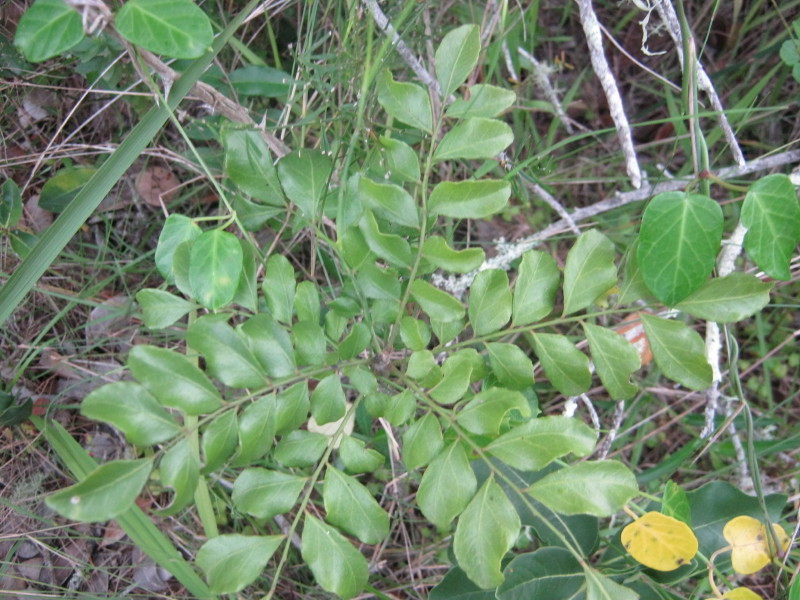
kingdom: Plantae
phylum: Tracheophyta
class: Magnoliopsida
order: Sapindales
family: Rutaceae
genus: Clausena
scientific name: Clausena anisata
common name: Horsewood
